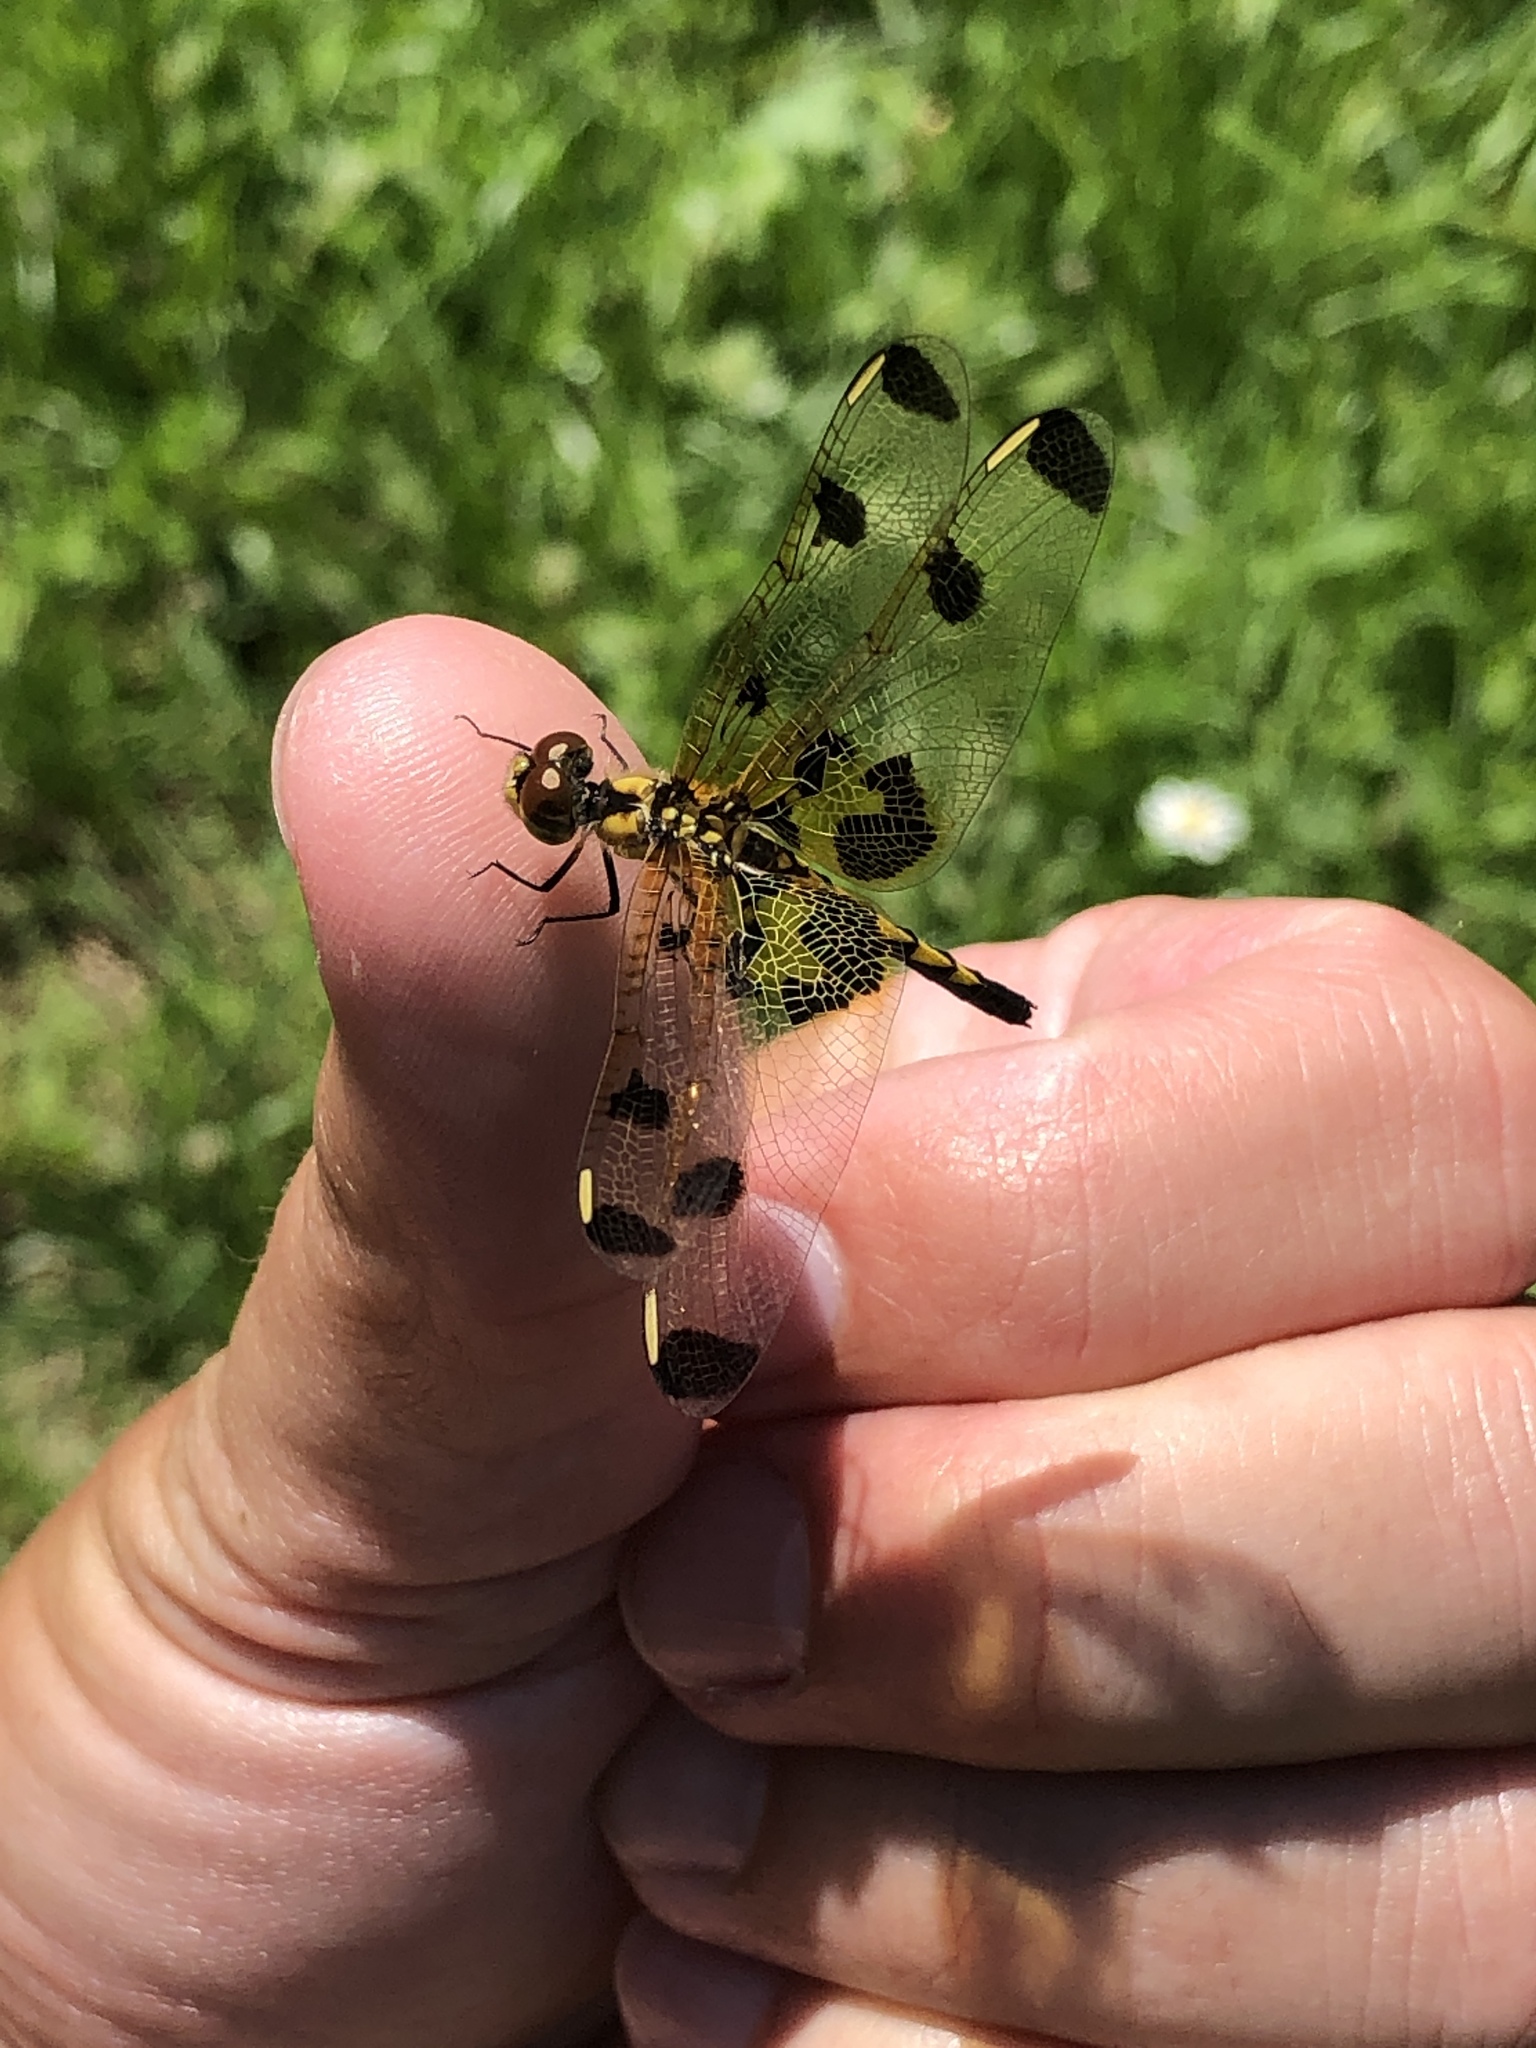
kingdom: Animalia
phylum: Arthropoda
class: Insecta
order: Odonata
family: Libellulidae
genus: Celithemis
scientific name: Celithemis elisa
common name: Calico pennant
